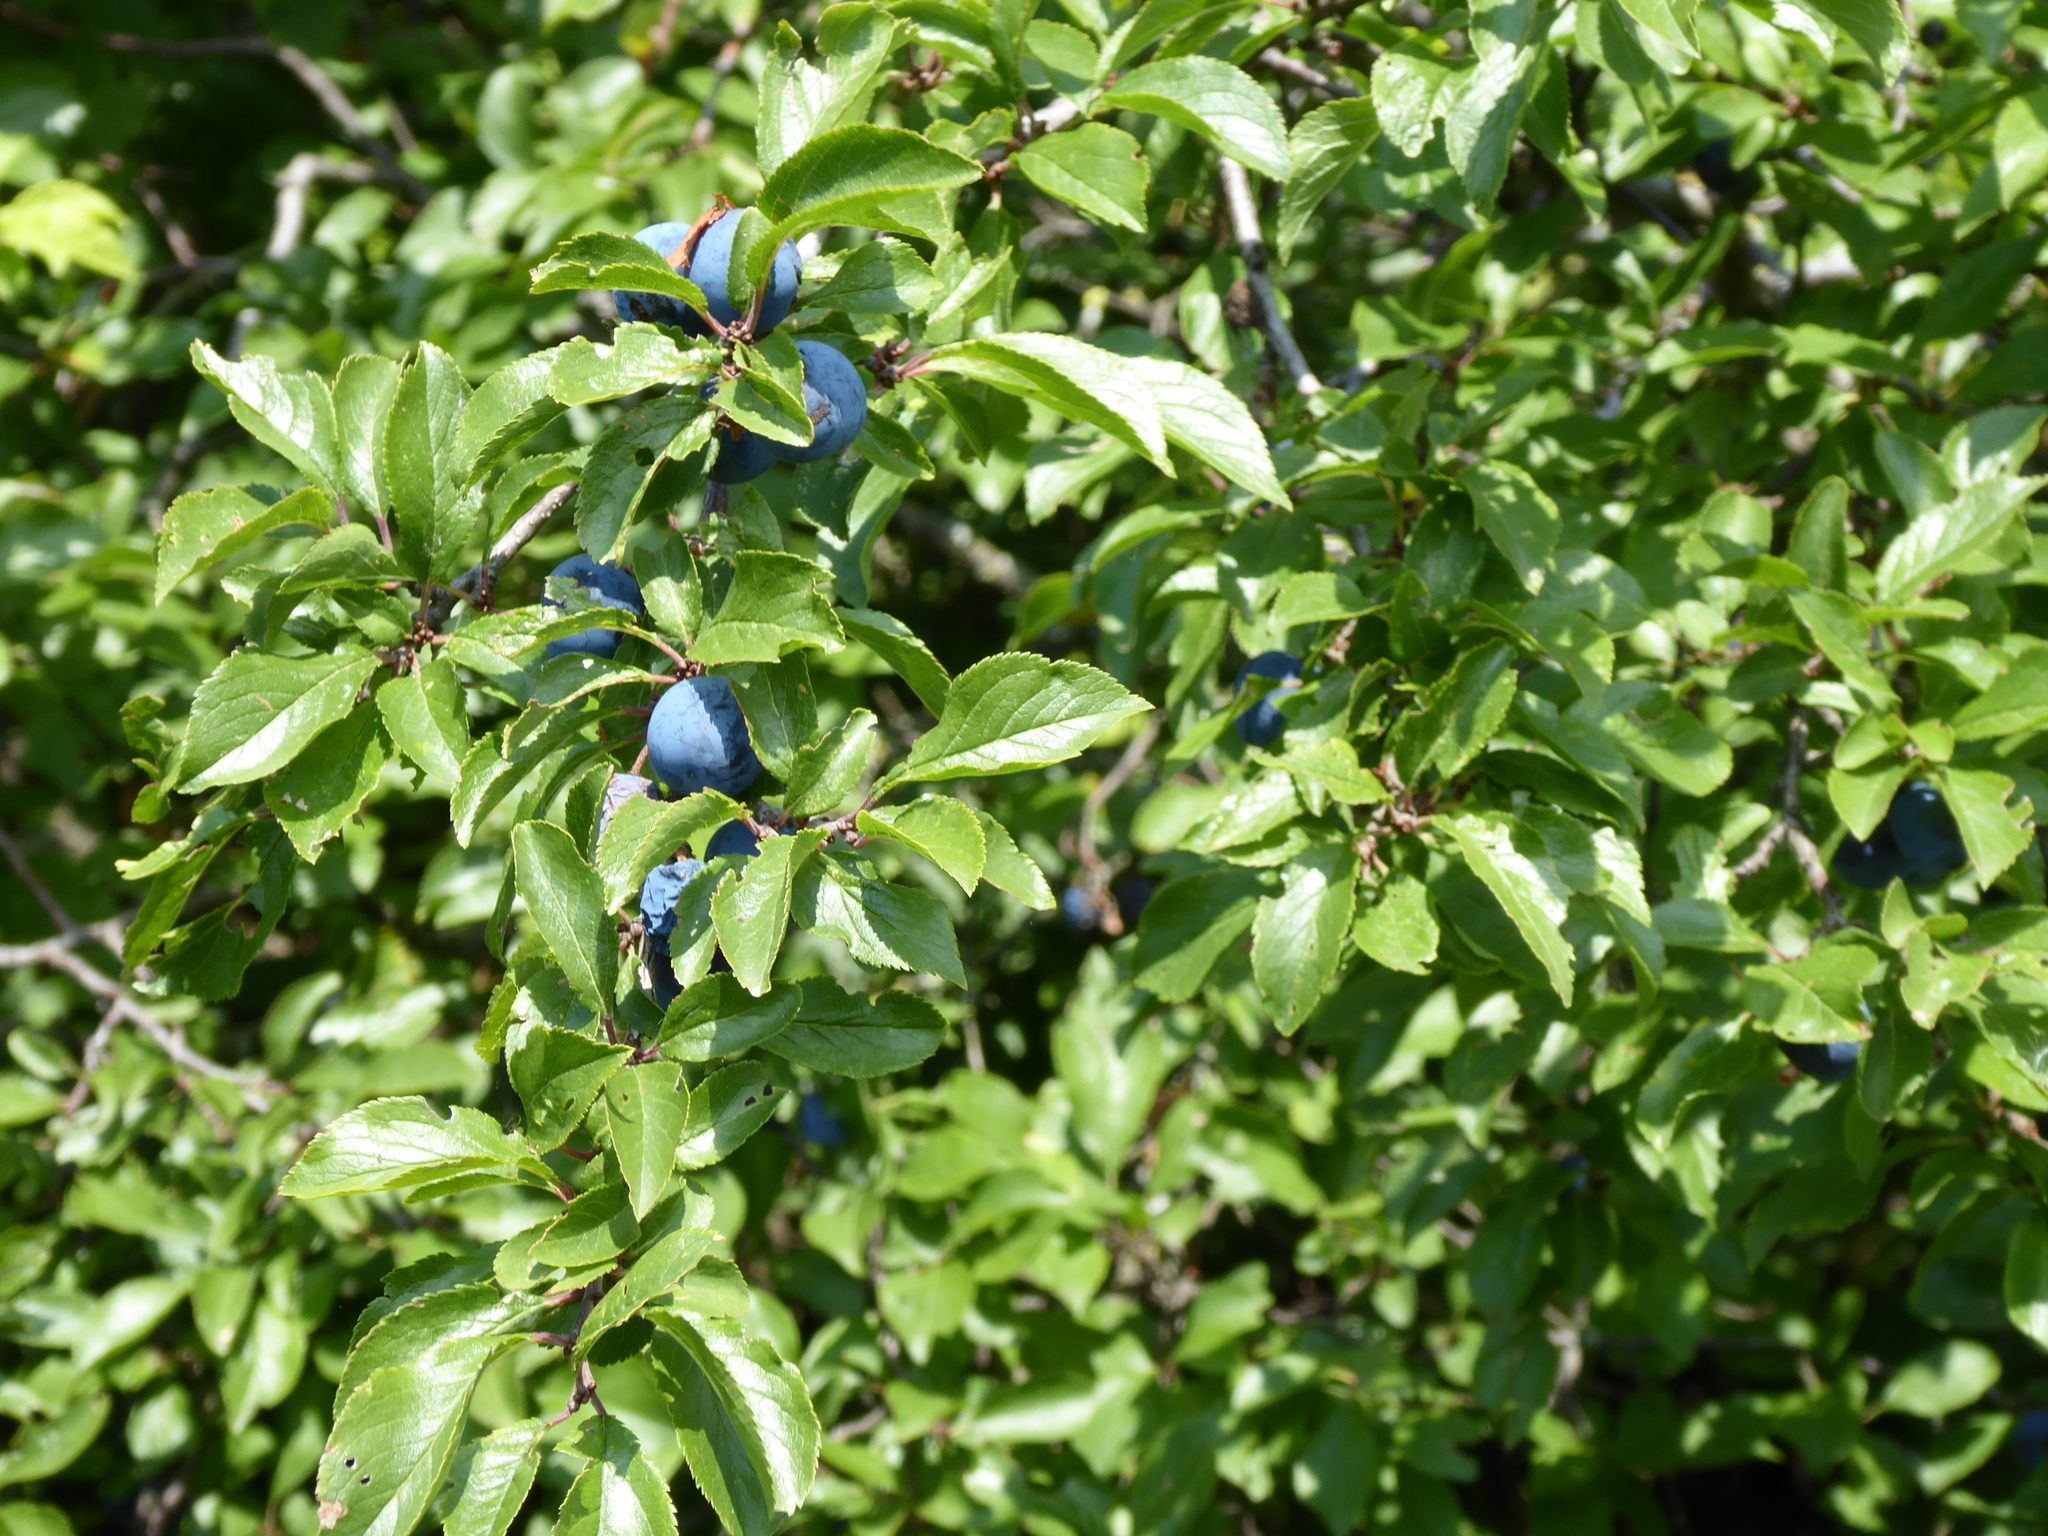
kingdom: Plantae
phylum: Tracheophyta
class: Magnoliopsida
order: Rosales
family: Rosaceae
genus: Prunus
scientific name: Prunus spinosa
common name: Blackthorn
